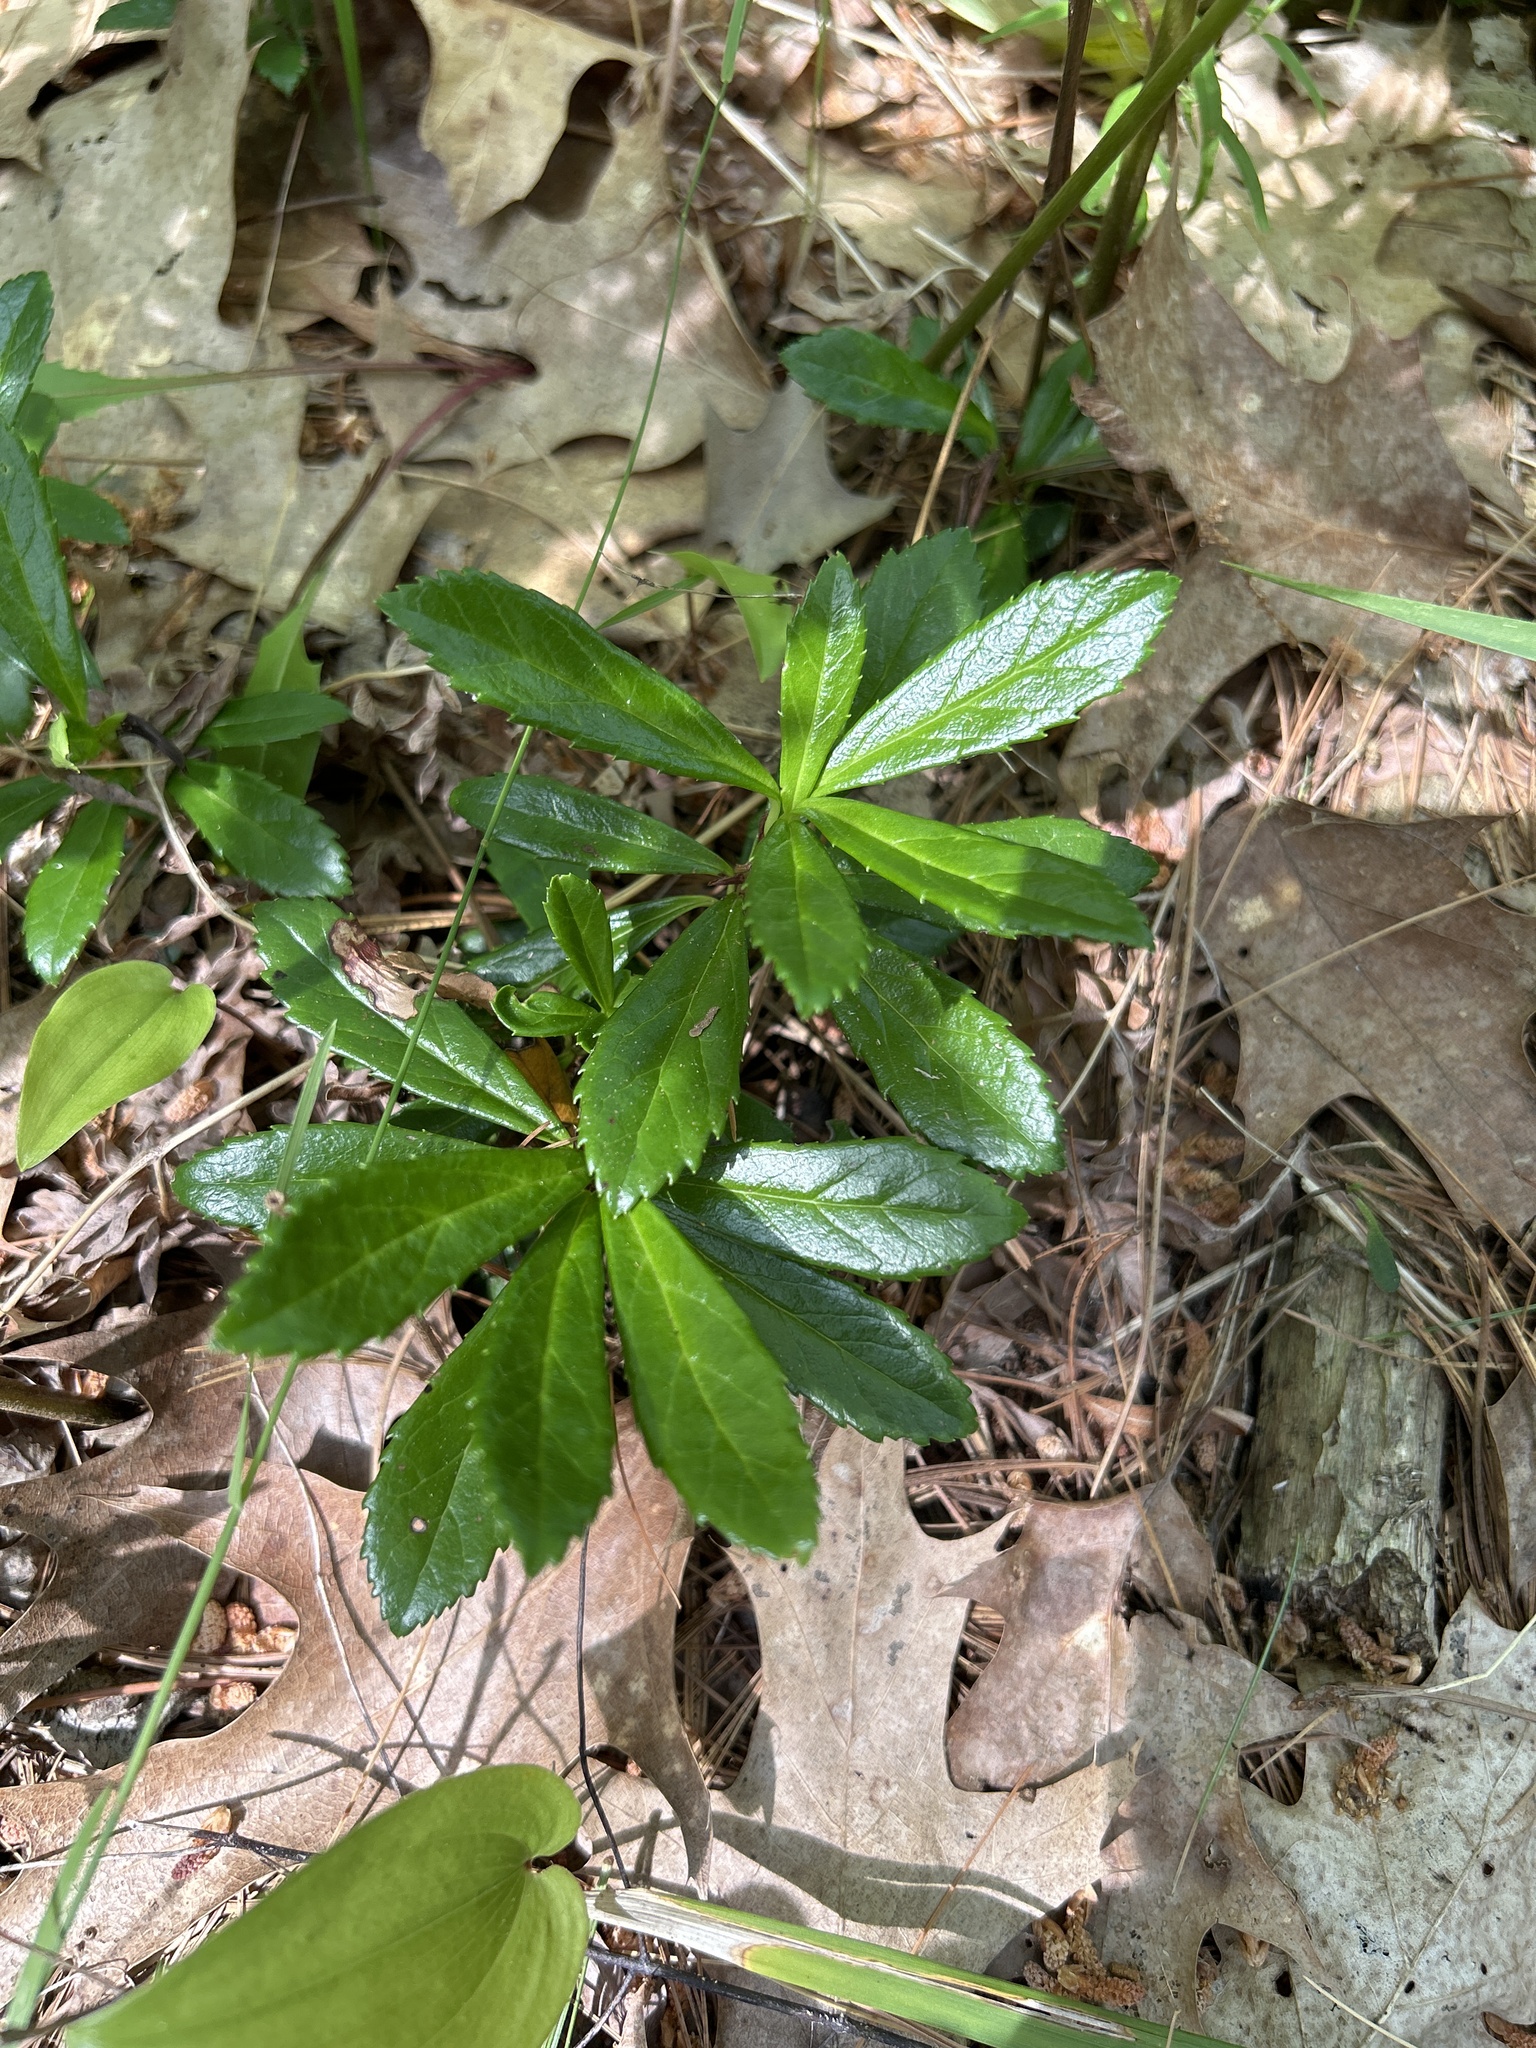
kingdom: Plantae
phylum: Tracheophyta
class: Magnoliopsida
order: Ericales
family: Ericaceae
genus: Chimaphila
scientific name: Chimaphila umbellata
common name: Pipsissewa
